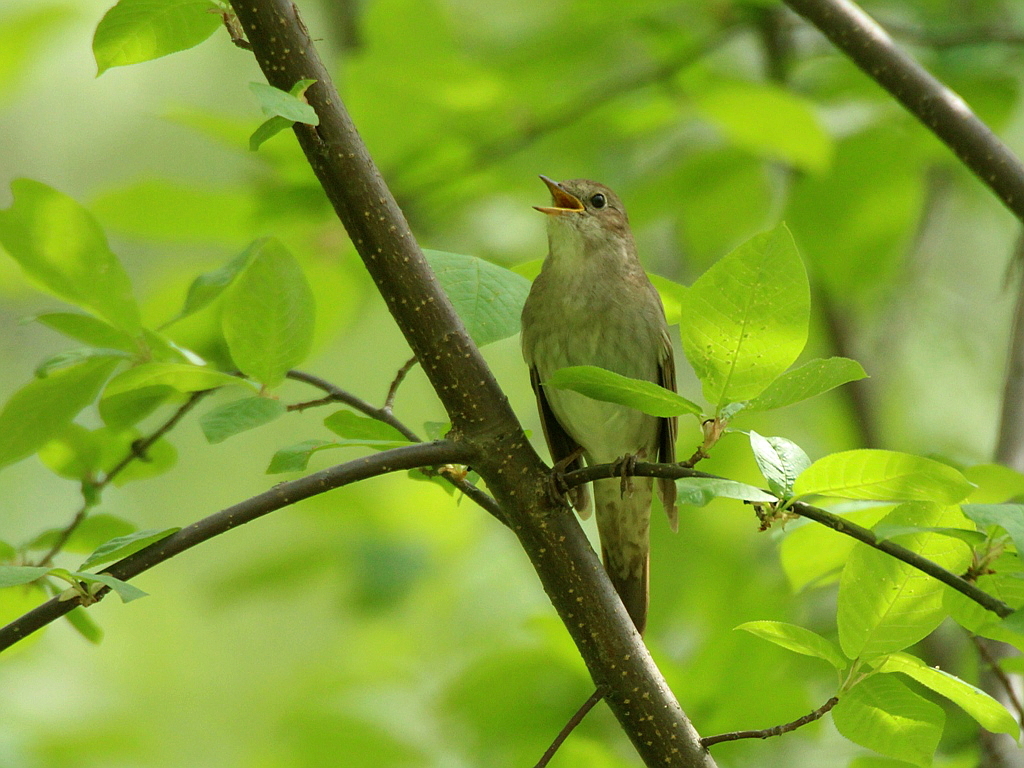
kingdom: Animalia
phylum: Chordata
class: Aves
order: Passeriformes
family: Muscicapidae
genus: Luscinia
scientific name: Luscinia luscinia
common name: Thrush nightingale
